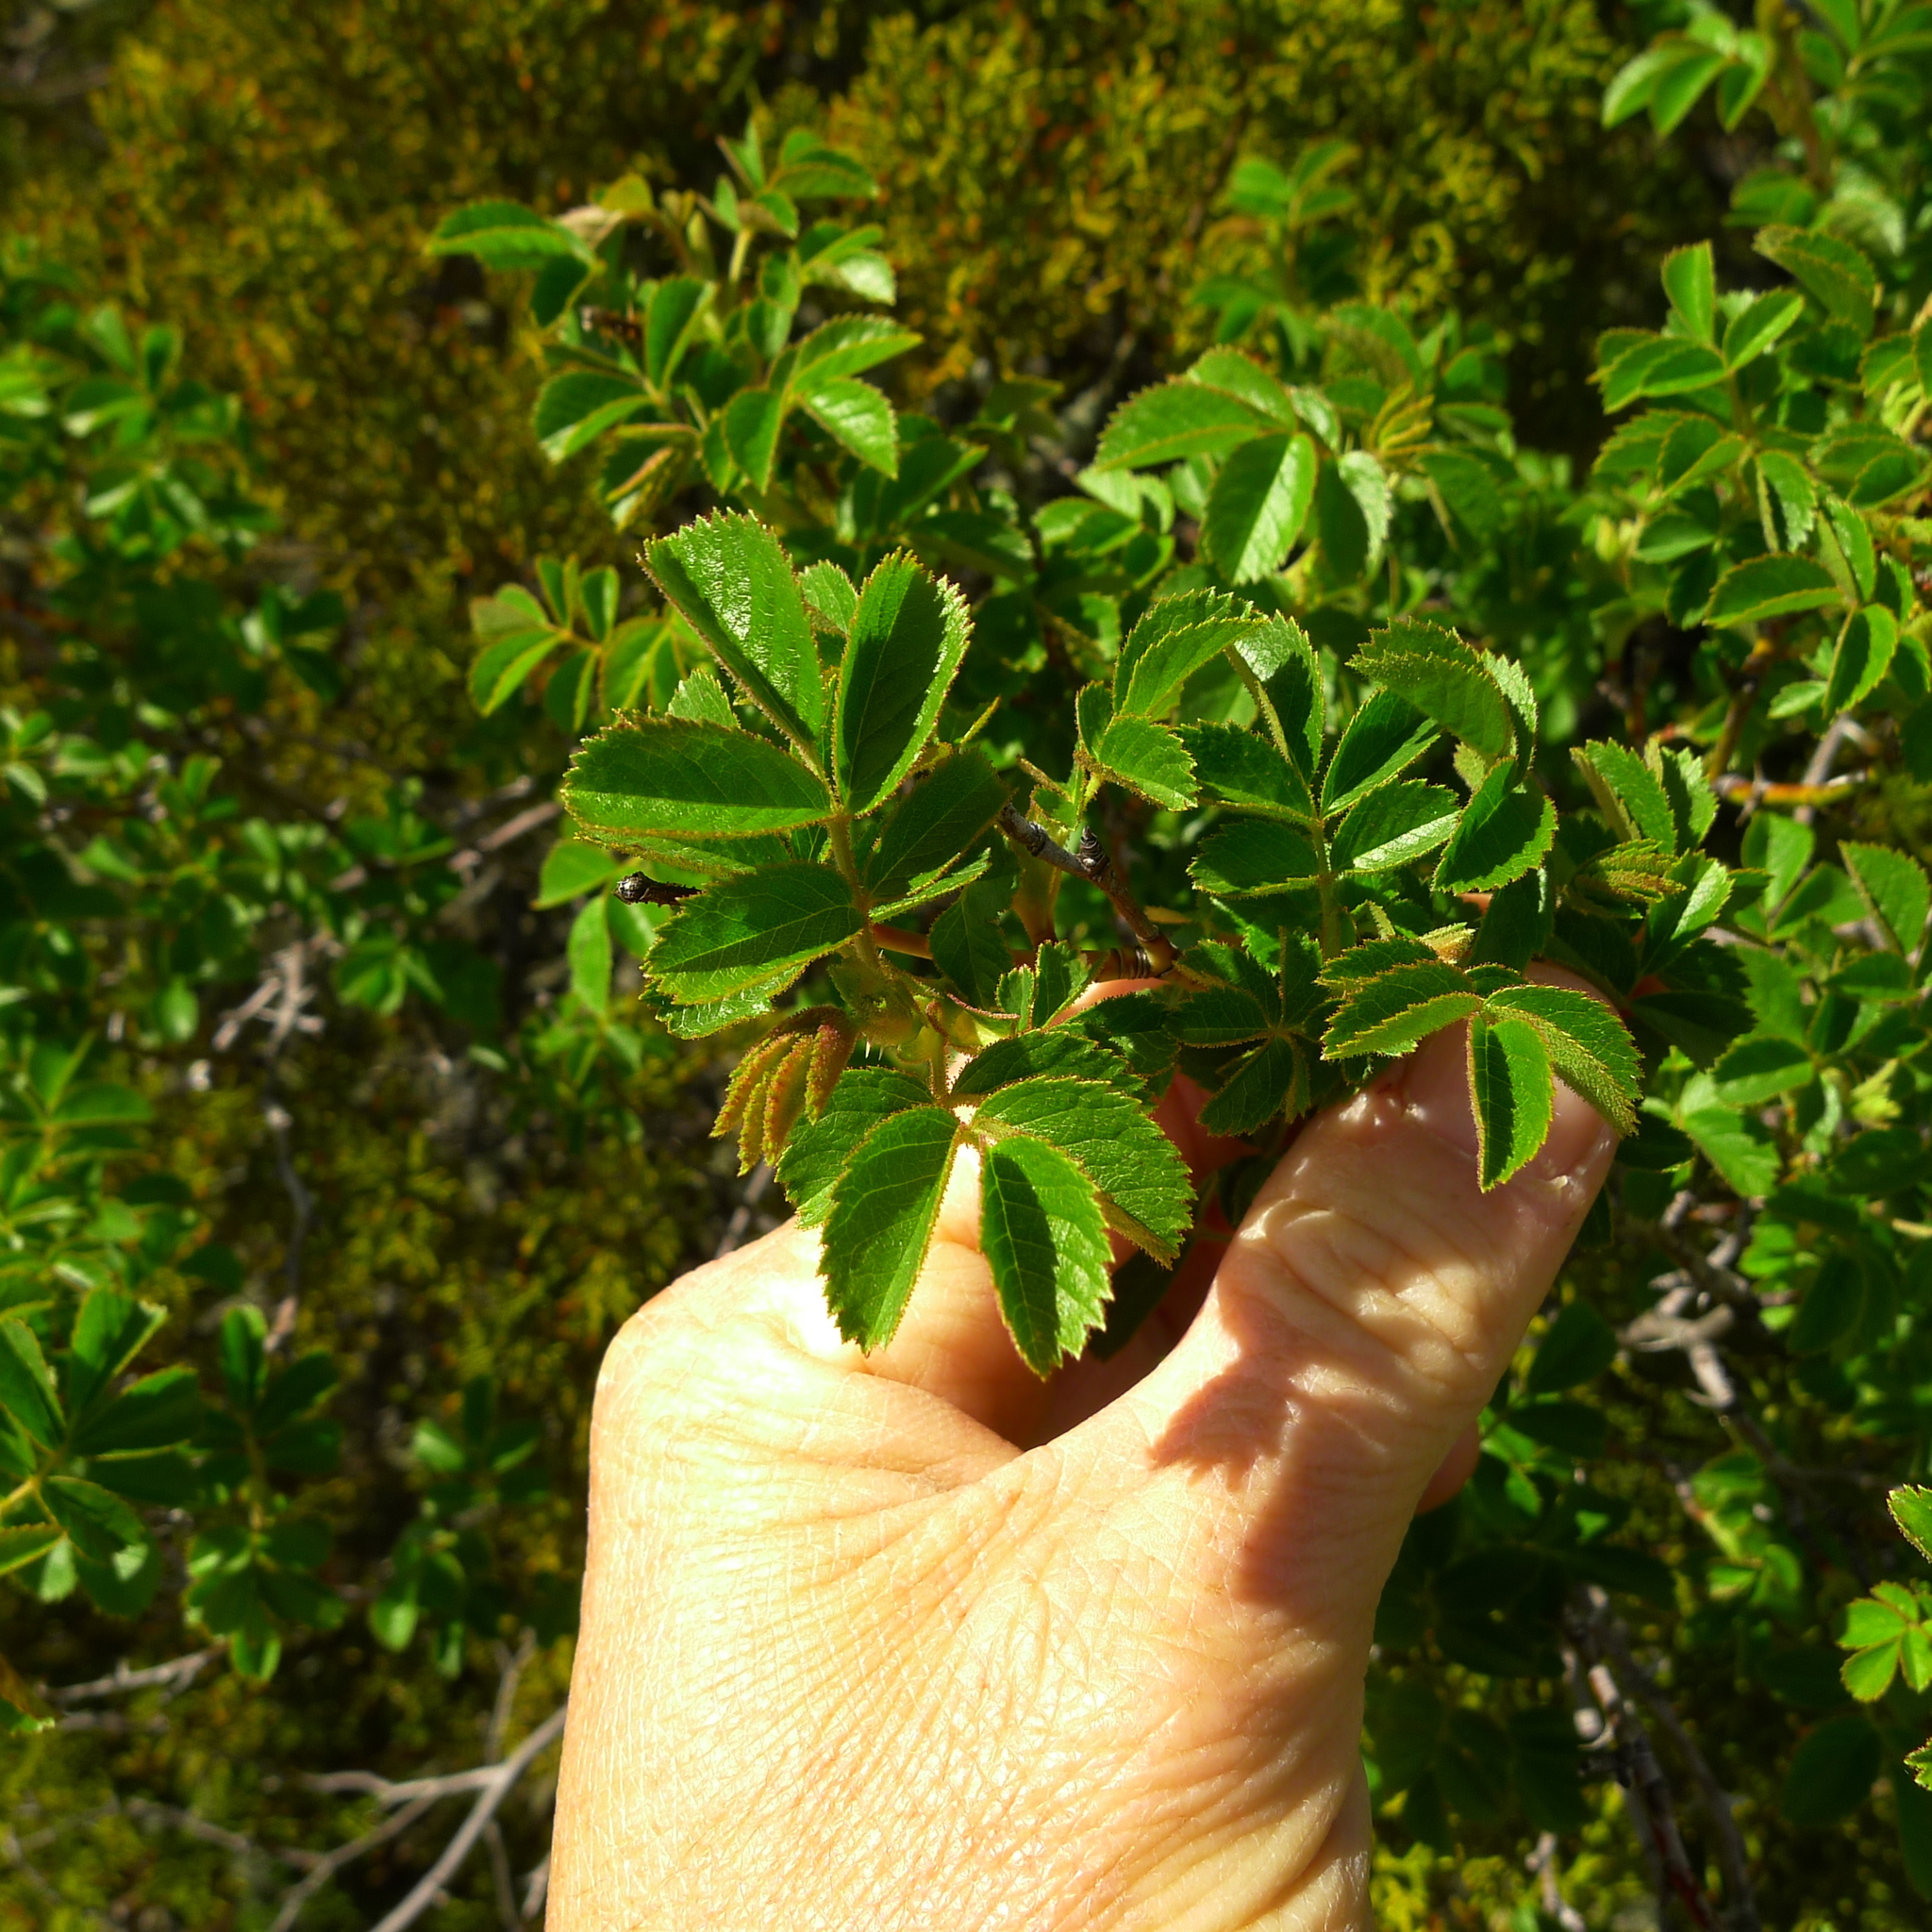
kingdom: Plantae
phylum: Tracheophyta
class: Magnoliopsida
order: Rosales
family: Rosaceae
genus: Rosa
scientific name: Rosa rubiginosa
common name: Sweet-briar
